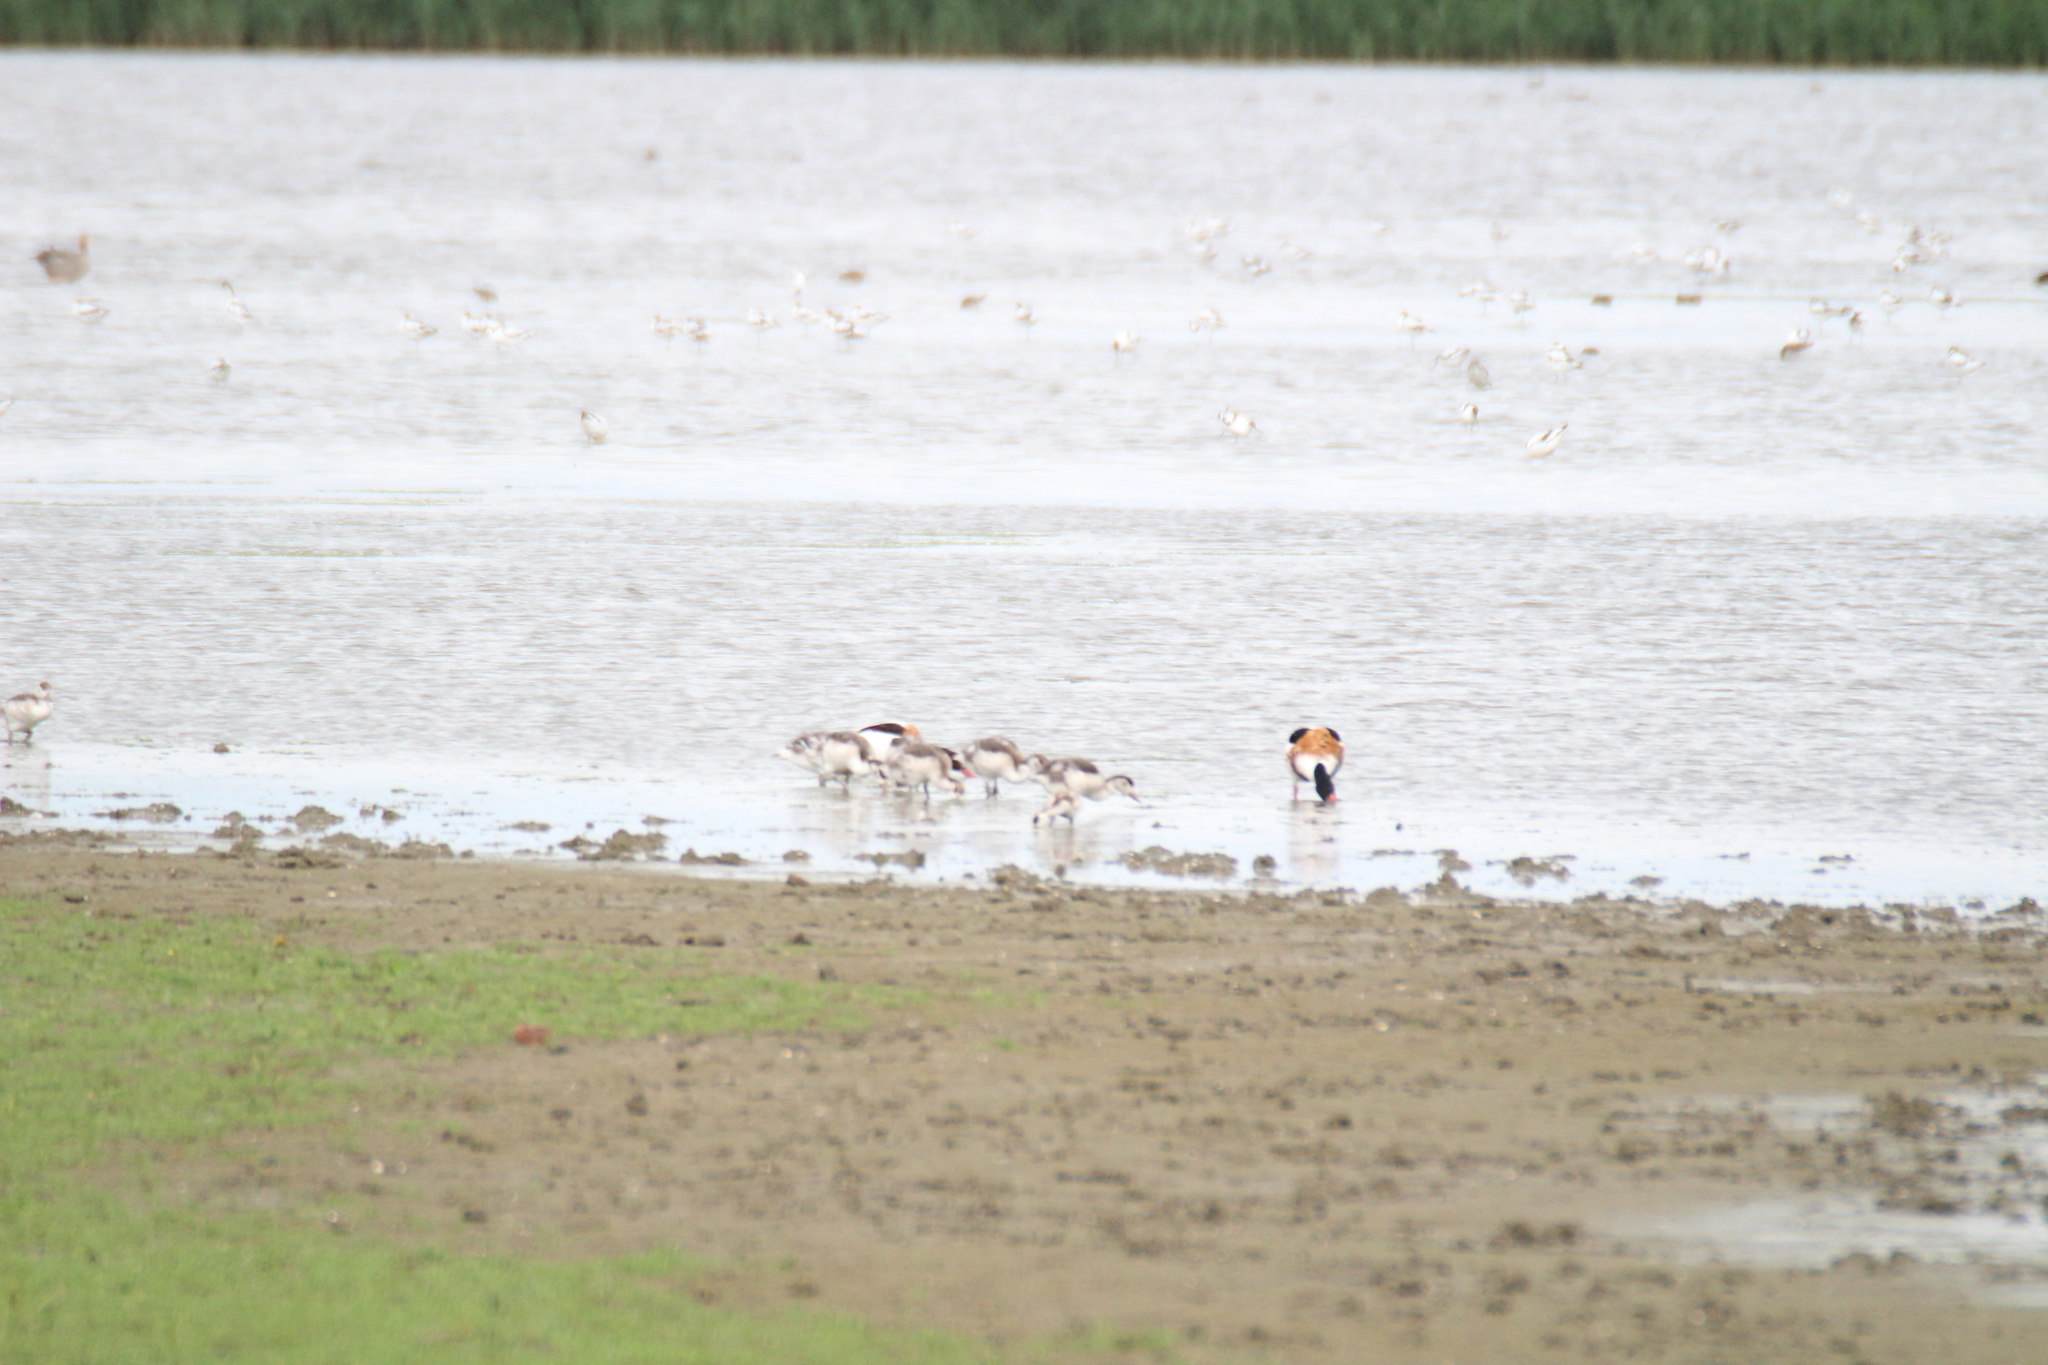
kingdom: Animalia
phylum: Chordata
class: Aves
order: Anseriformes
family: Anatidae
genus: Tadorna
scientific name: Tadorna tadorna
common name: Common shelduck
